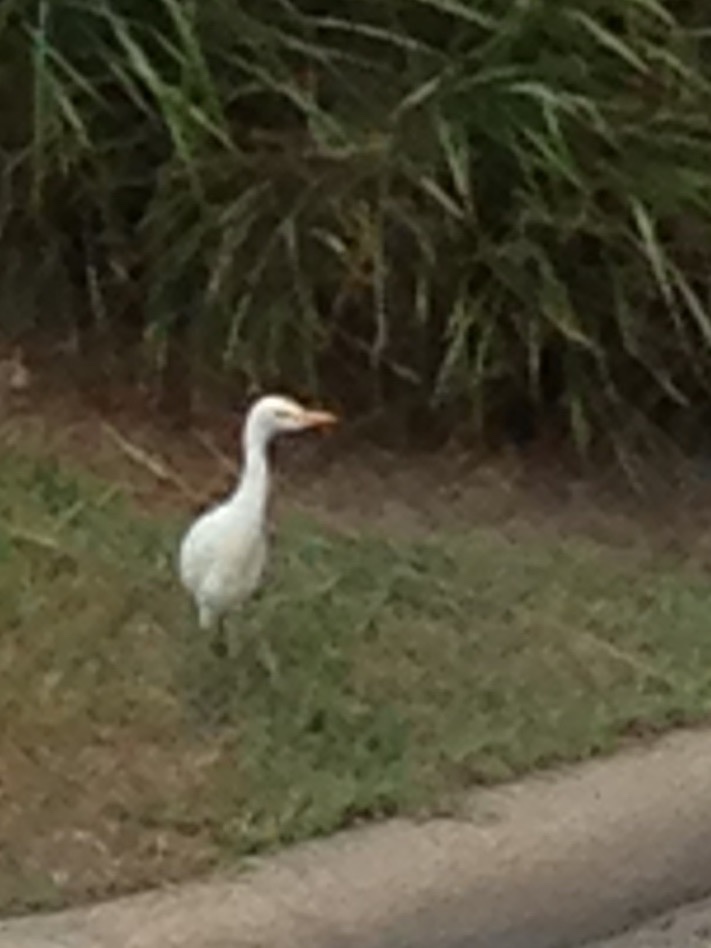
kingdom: Animalia
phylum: Chordata
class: Aves
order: Pelecaniformes
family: Ardeidae
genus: Bubulcus
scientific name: Bubulcus ibis
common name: Cattle egret
